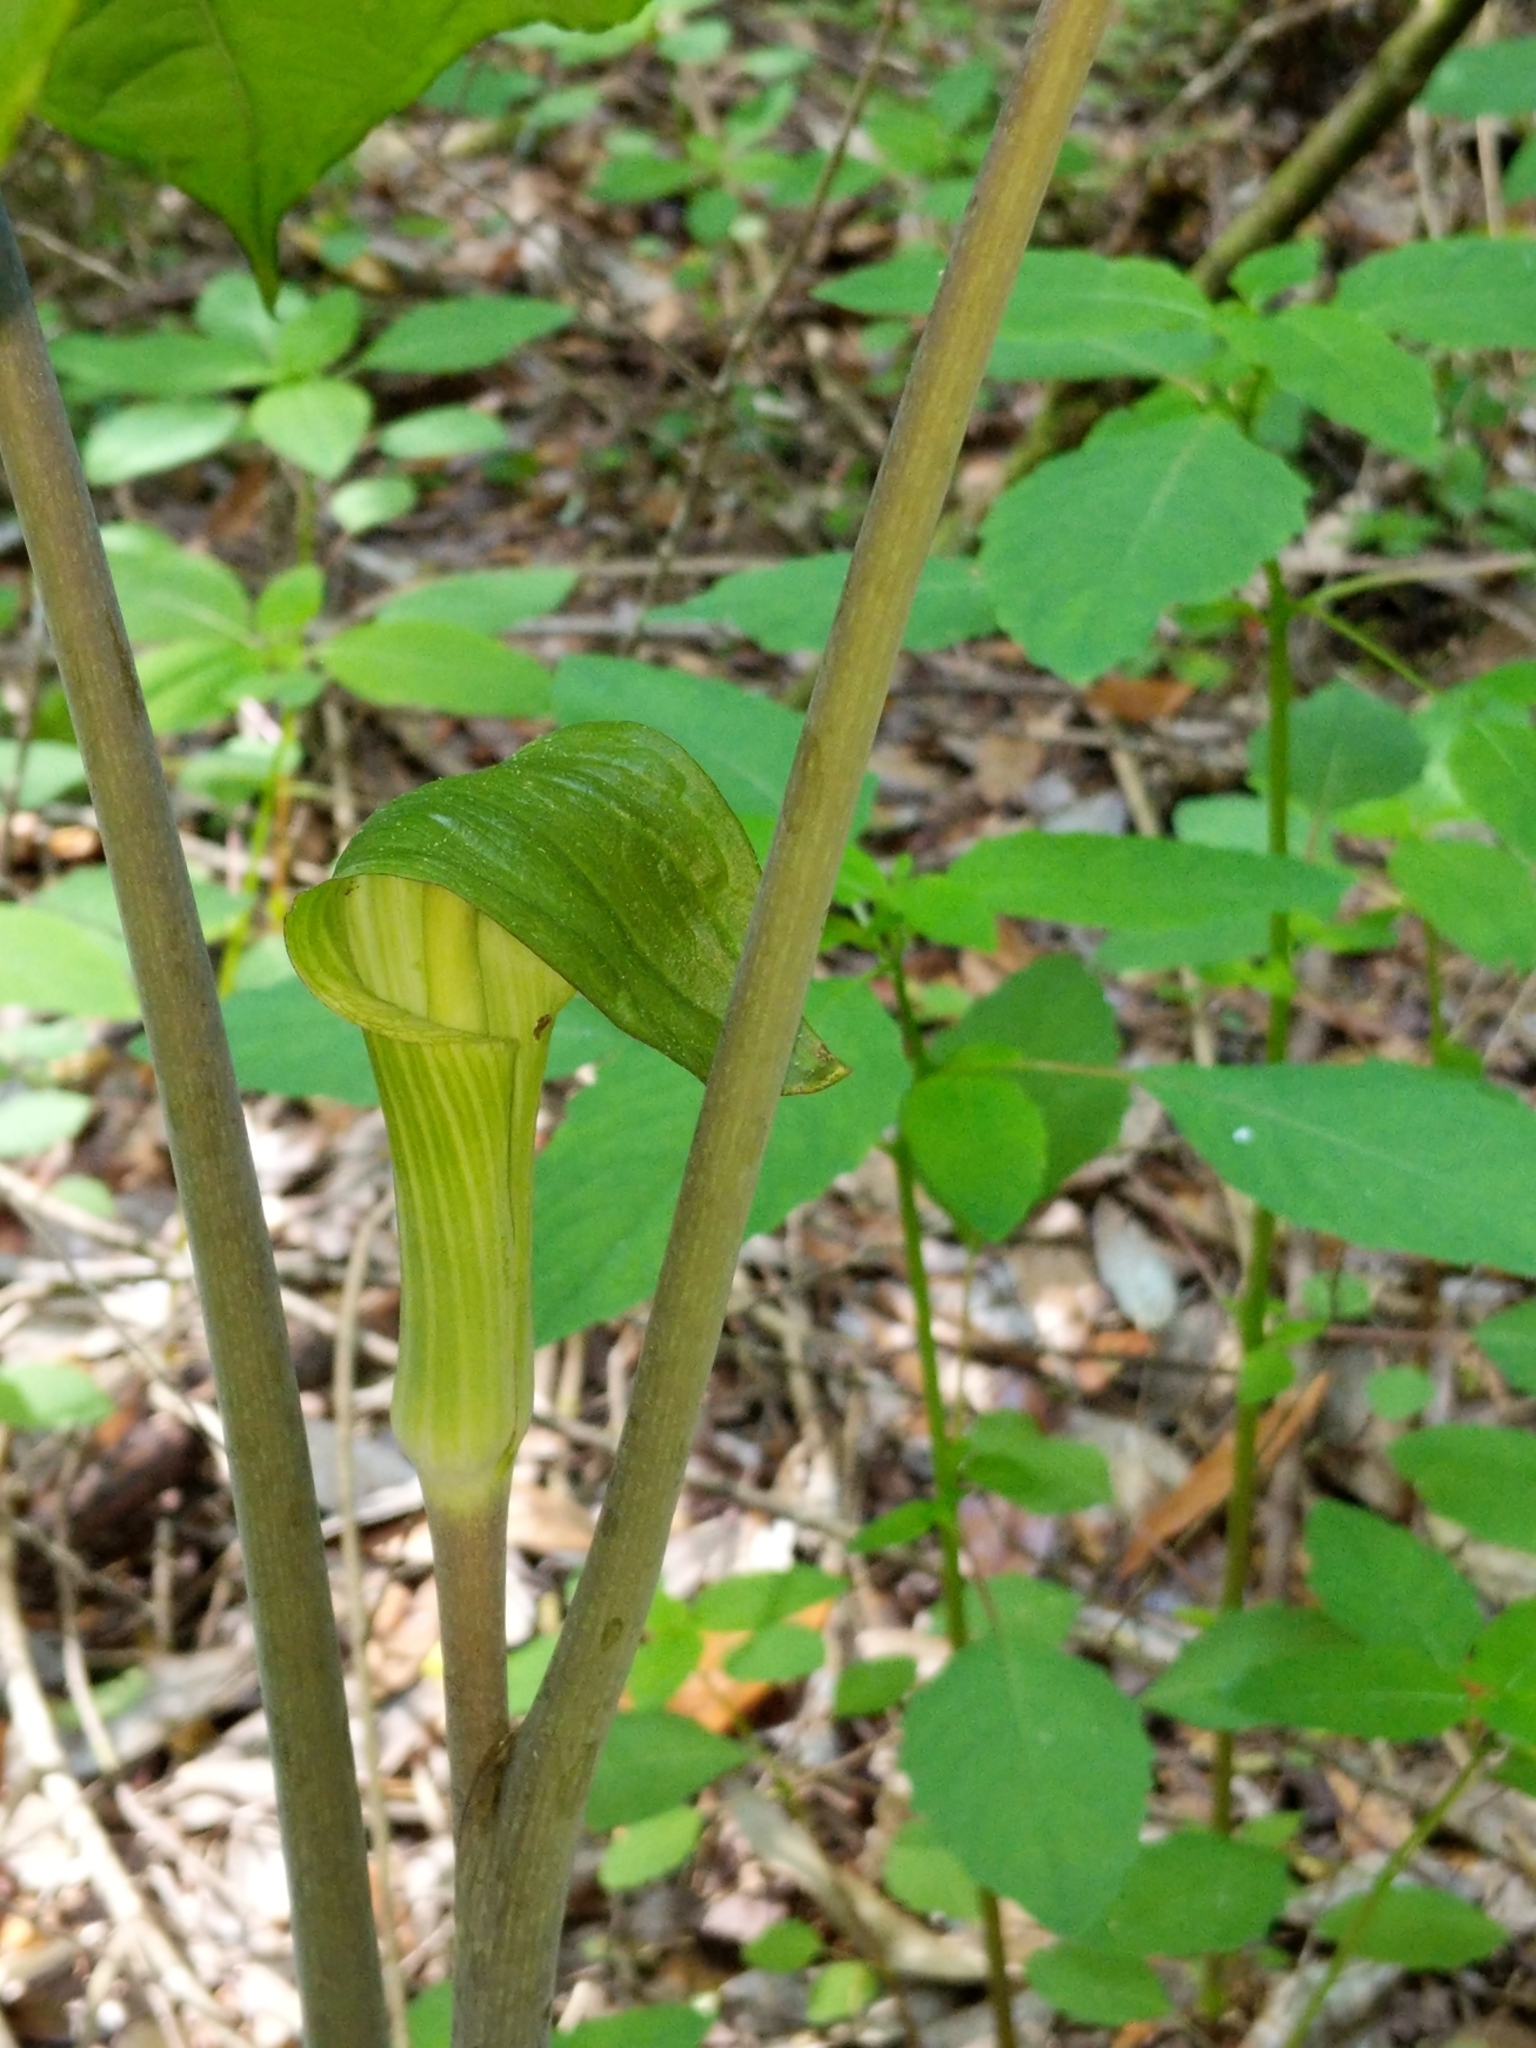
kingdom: Plantae
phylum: Tracheophyta
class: Liliopsida
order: Alismatales
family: Araceae
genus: Arisaema
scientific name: Arisaema triphyllum
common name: Jack-in-the-pulpit
